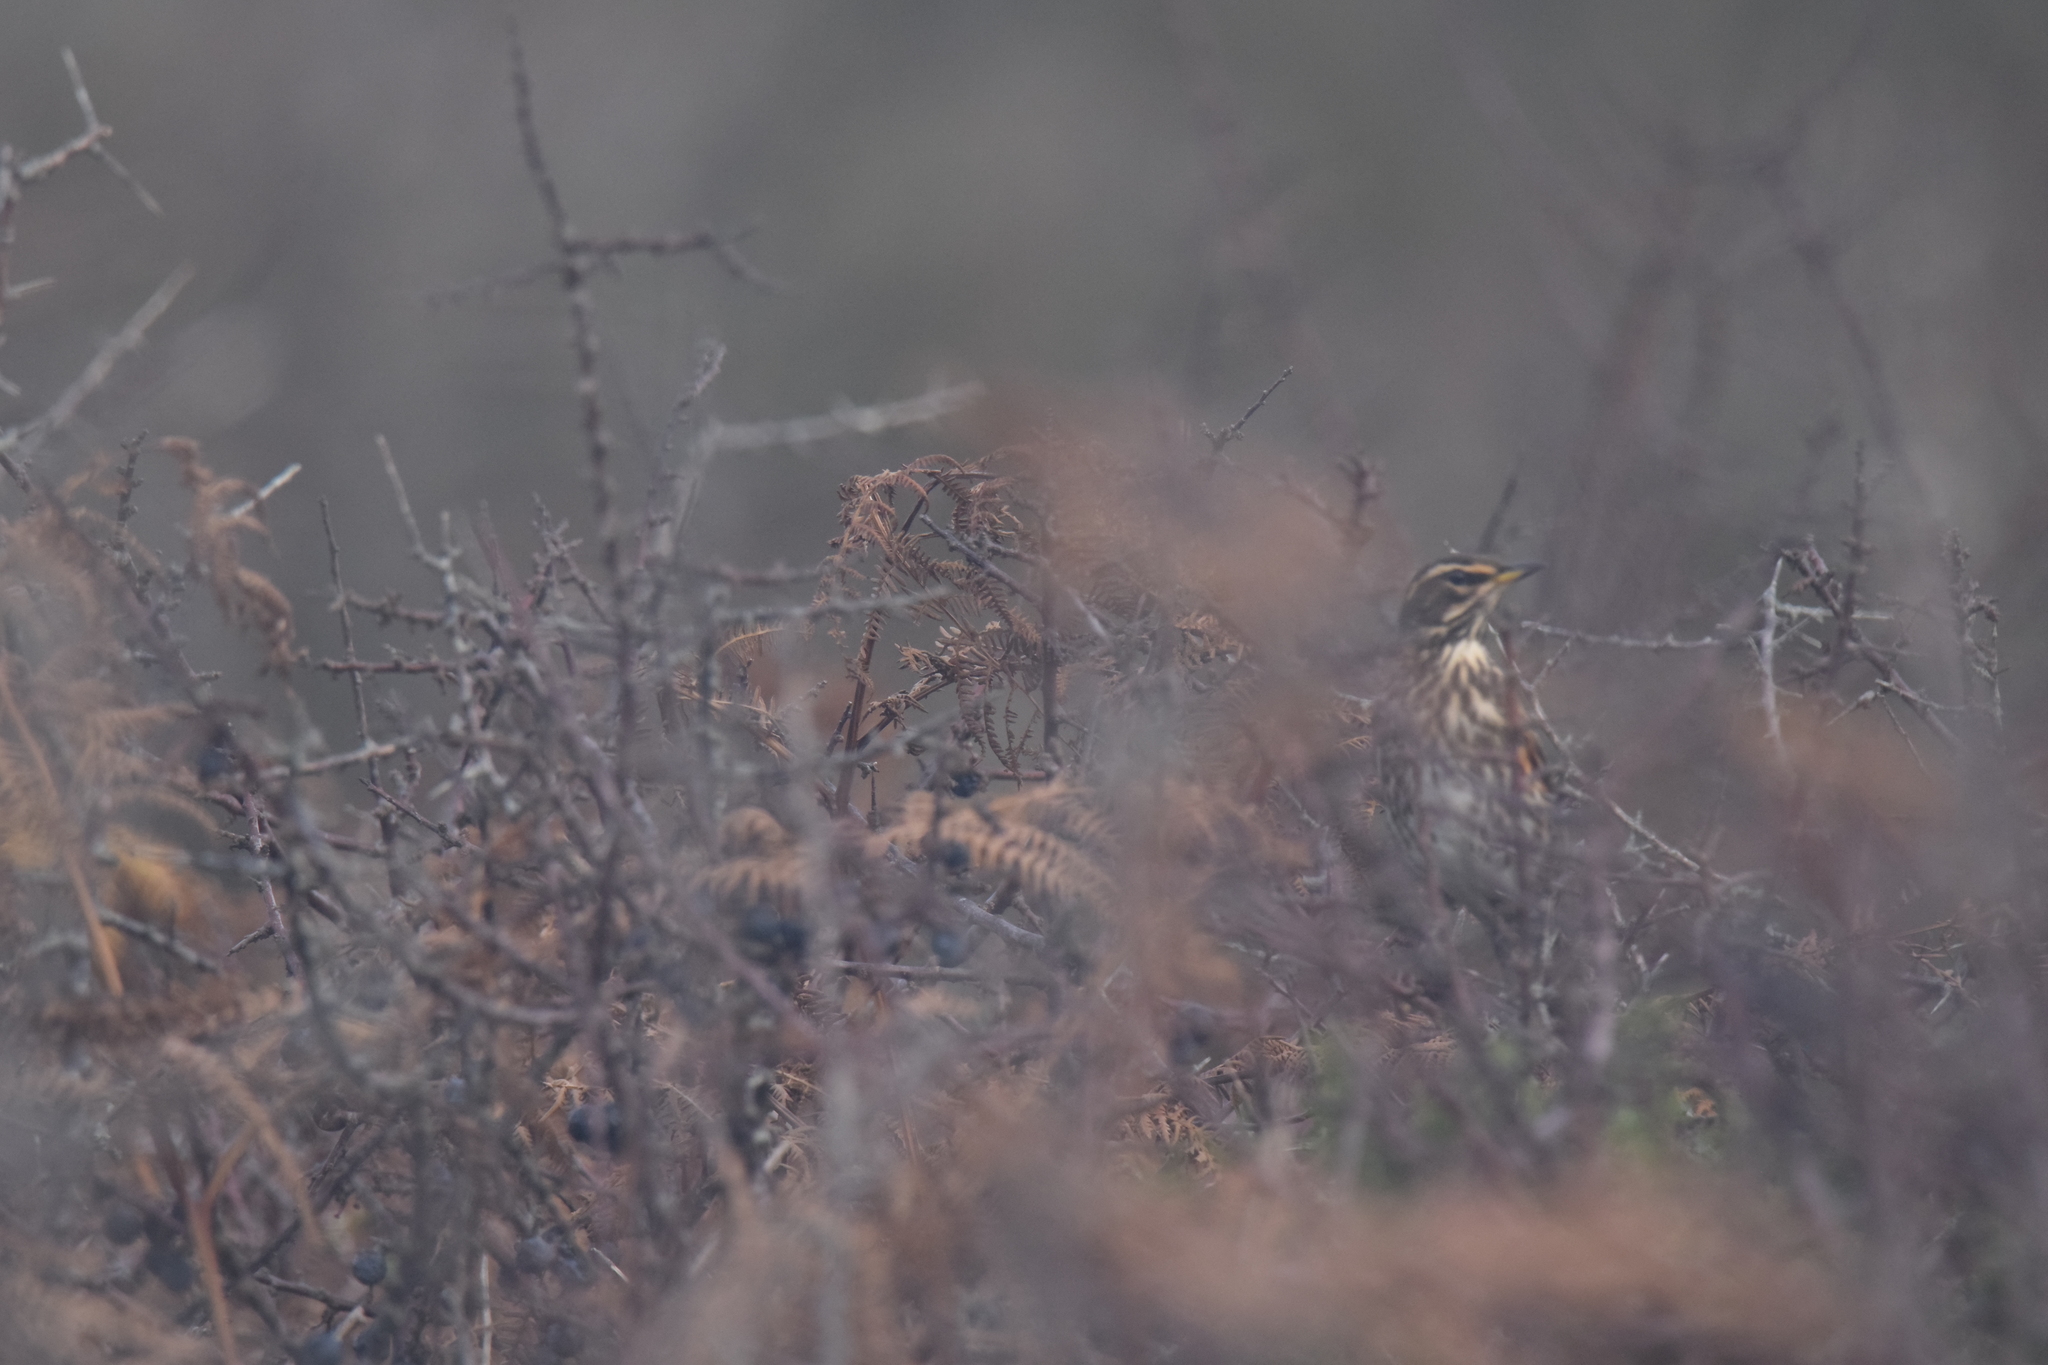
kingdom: Animalia
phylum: Chordata
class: Aves
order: Passeriformes
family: Turdidae
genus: Turdus
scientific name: Turdus iliacus
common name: Redwing
